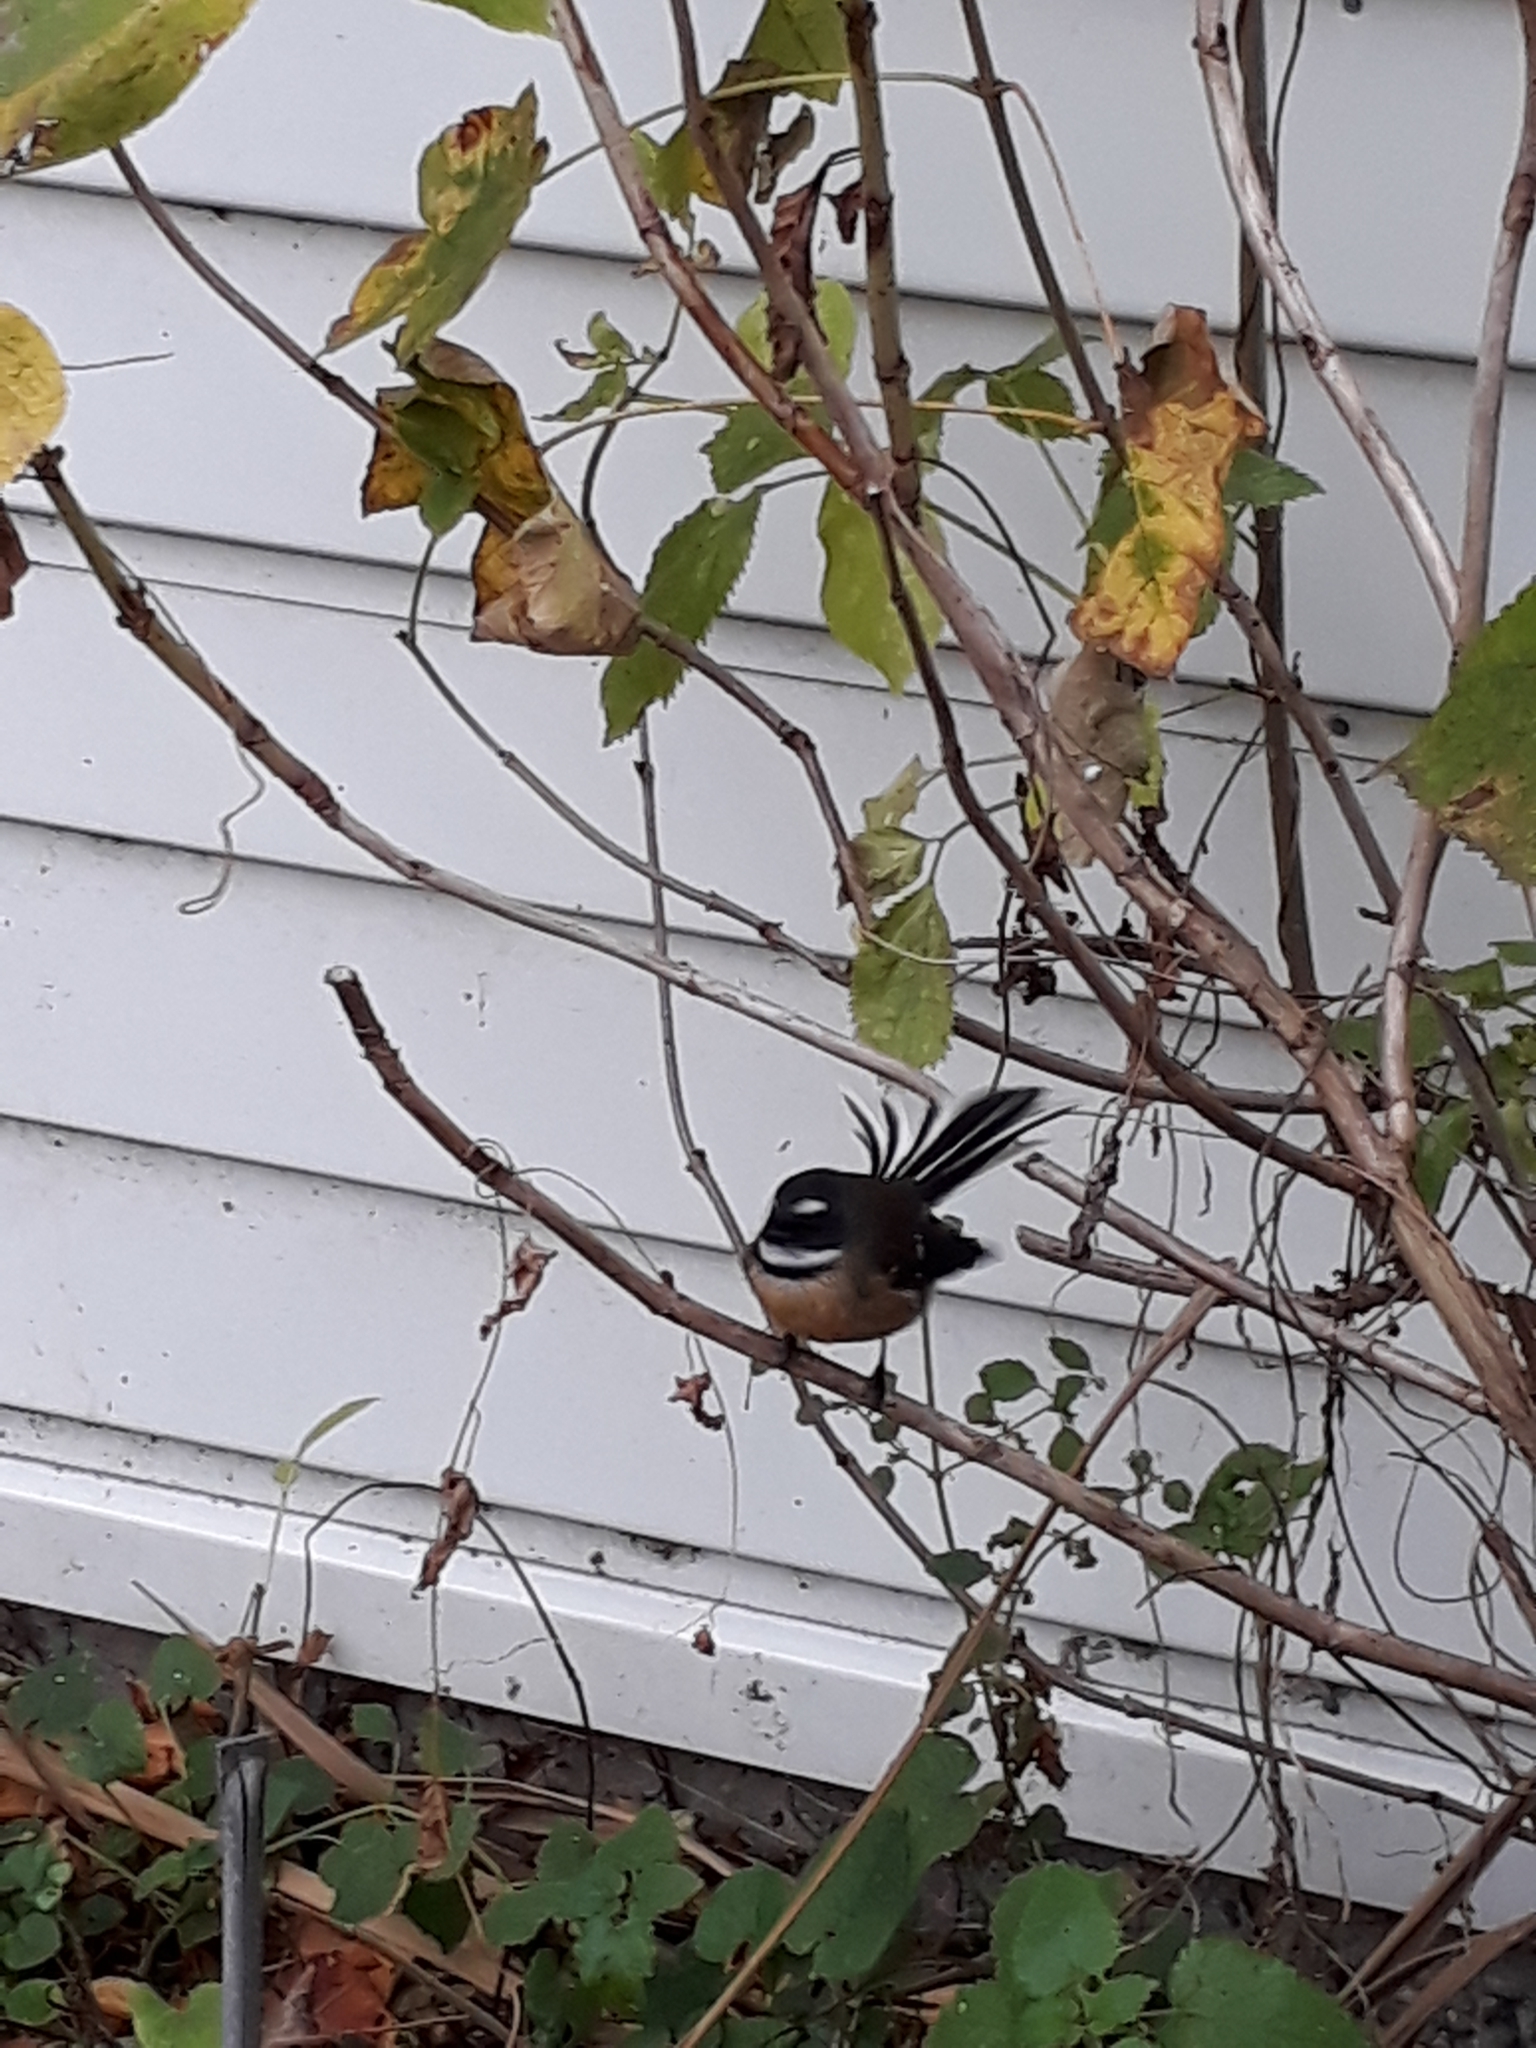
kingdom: Animalia
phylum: Chordata
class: Aves
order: Passeriformes
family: Rhipiduridae
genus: Rhipidura
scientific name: Rhipidura fuliginosa
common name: New zealand fantail
